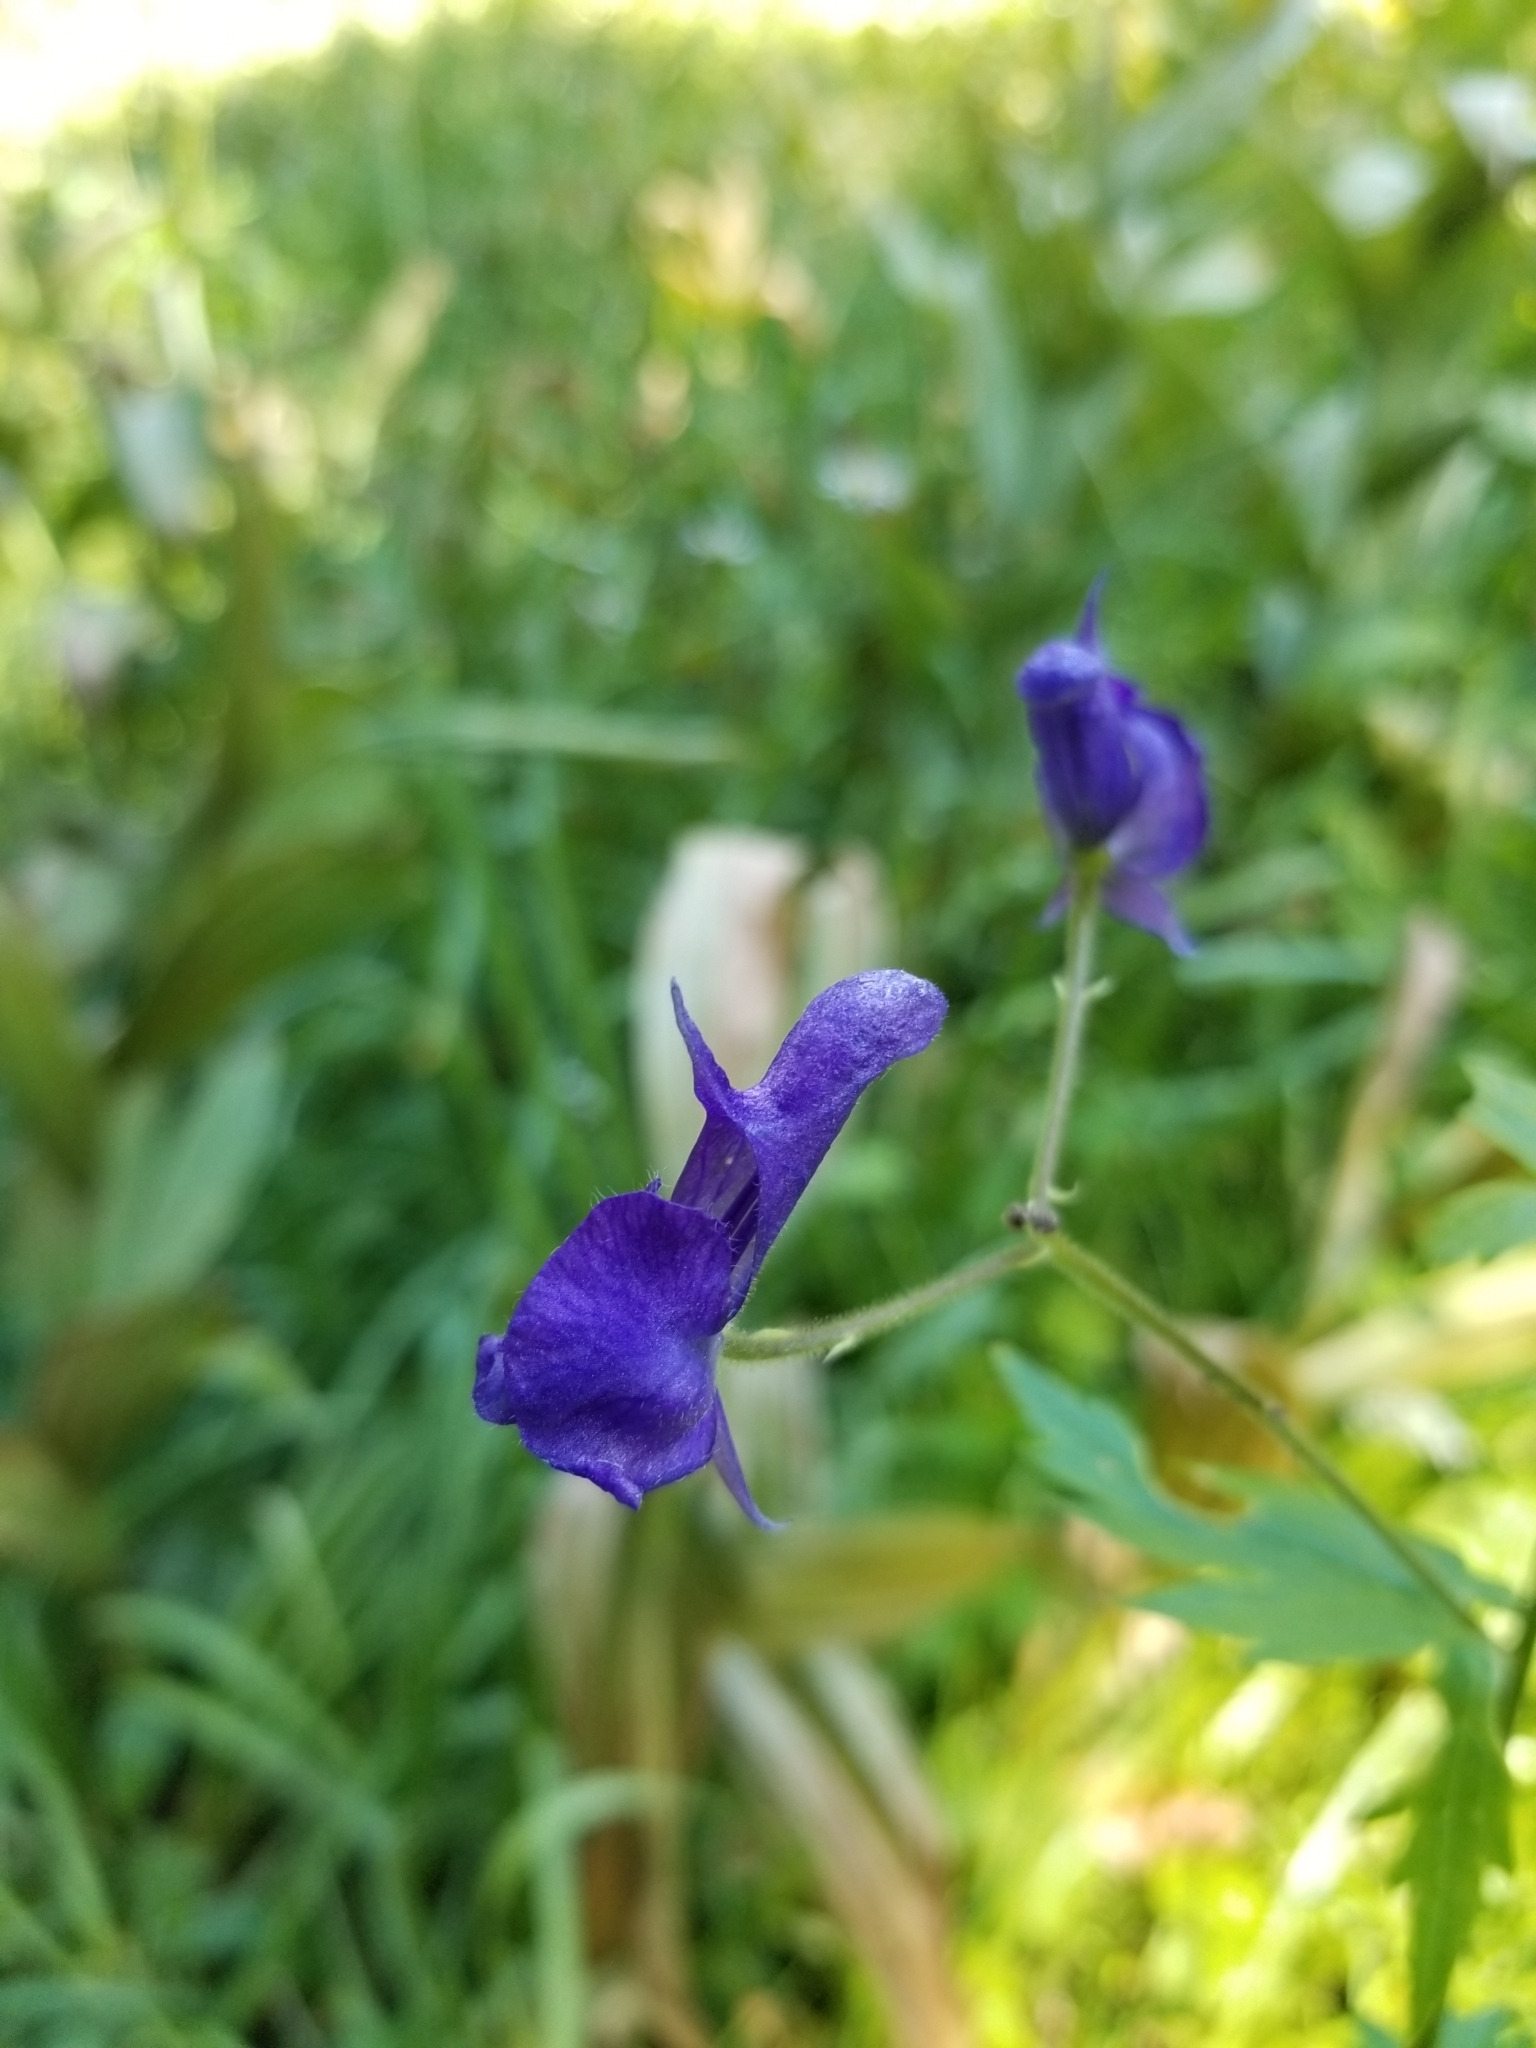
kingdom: Plantae
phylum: Tracheophyta
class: Magnoliopsida
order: Ranunculales
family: Ranunculaceae
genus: Aconitum
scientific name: Aconitum columbianum
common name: Columbia aconite
